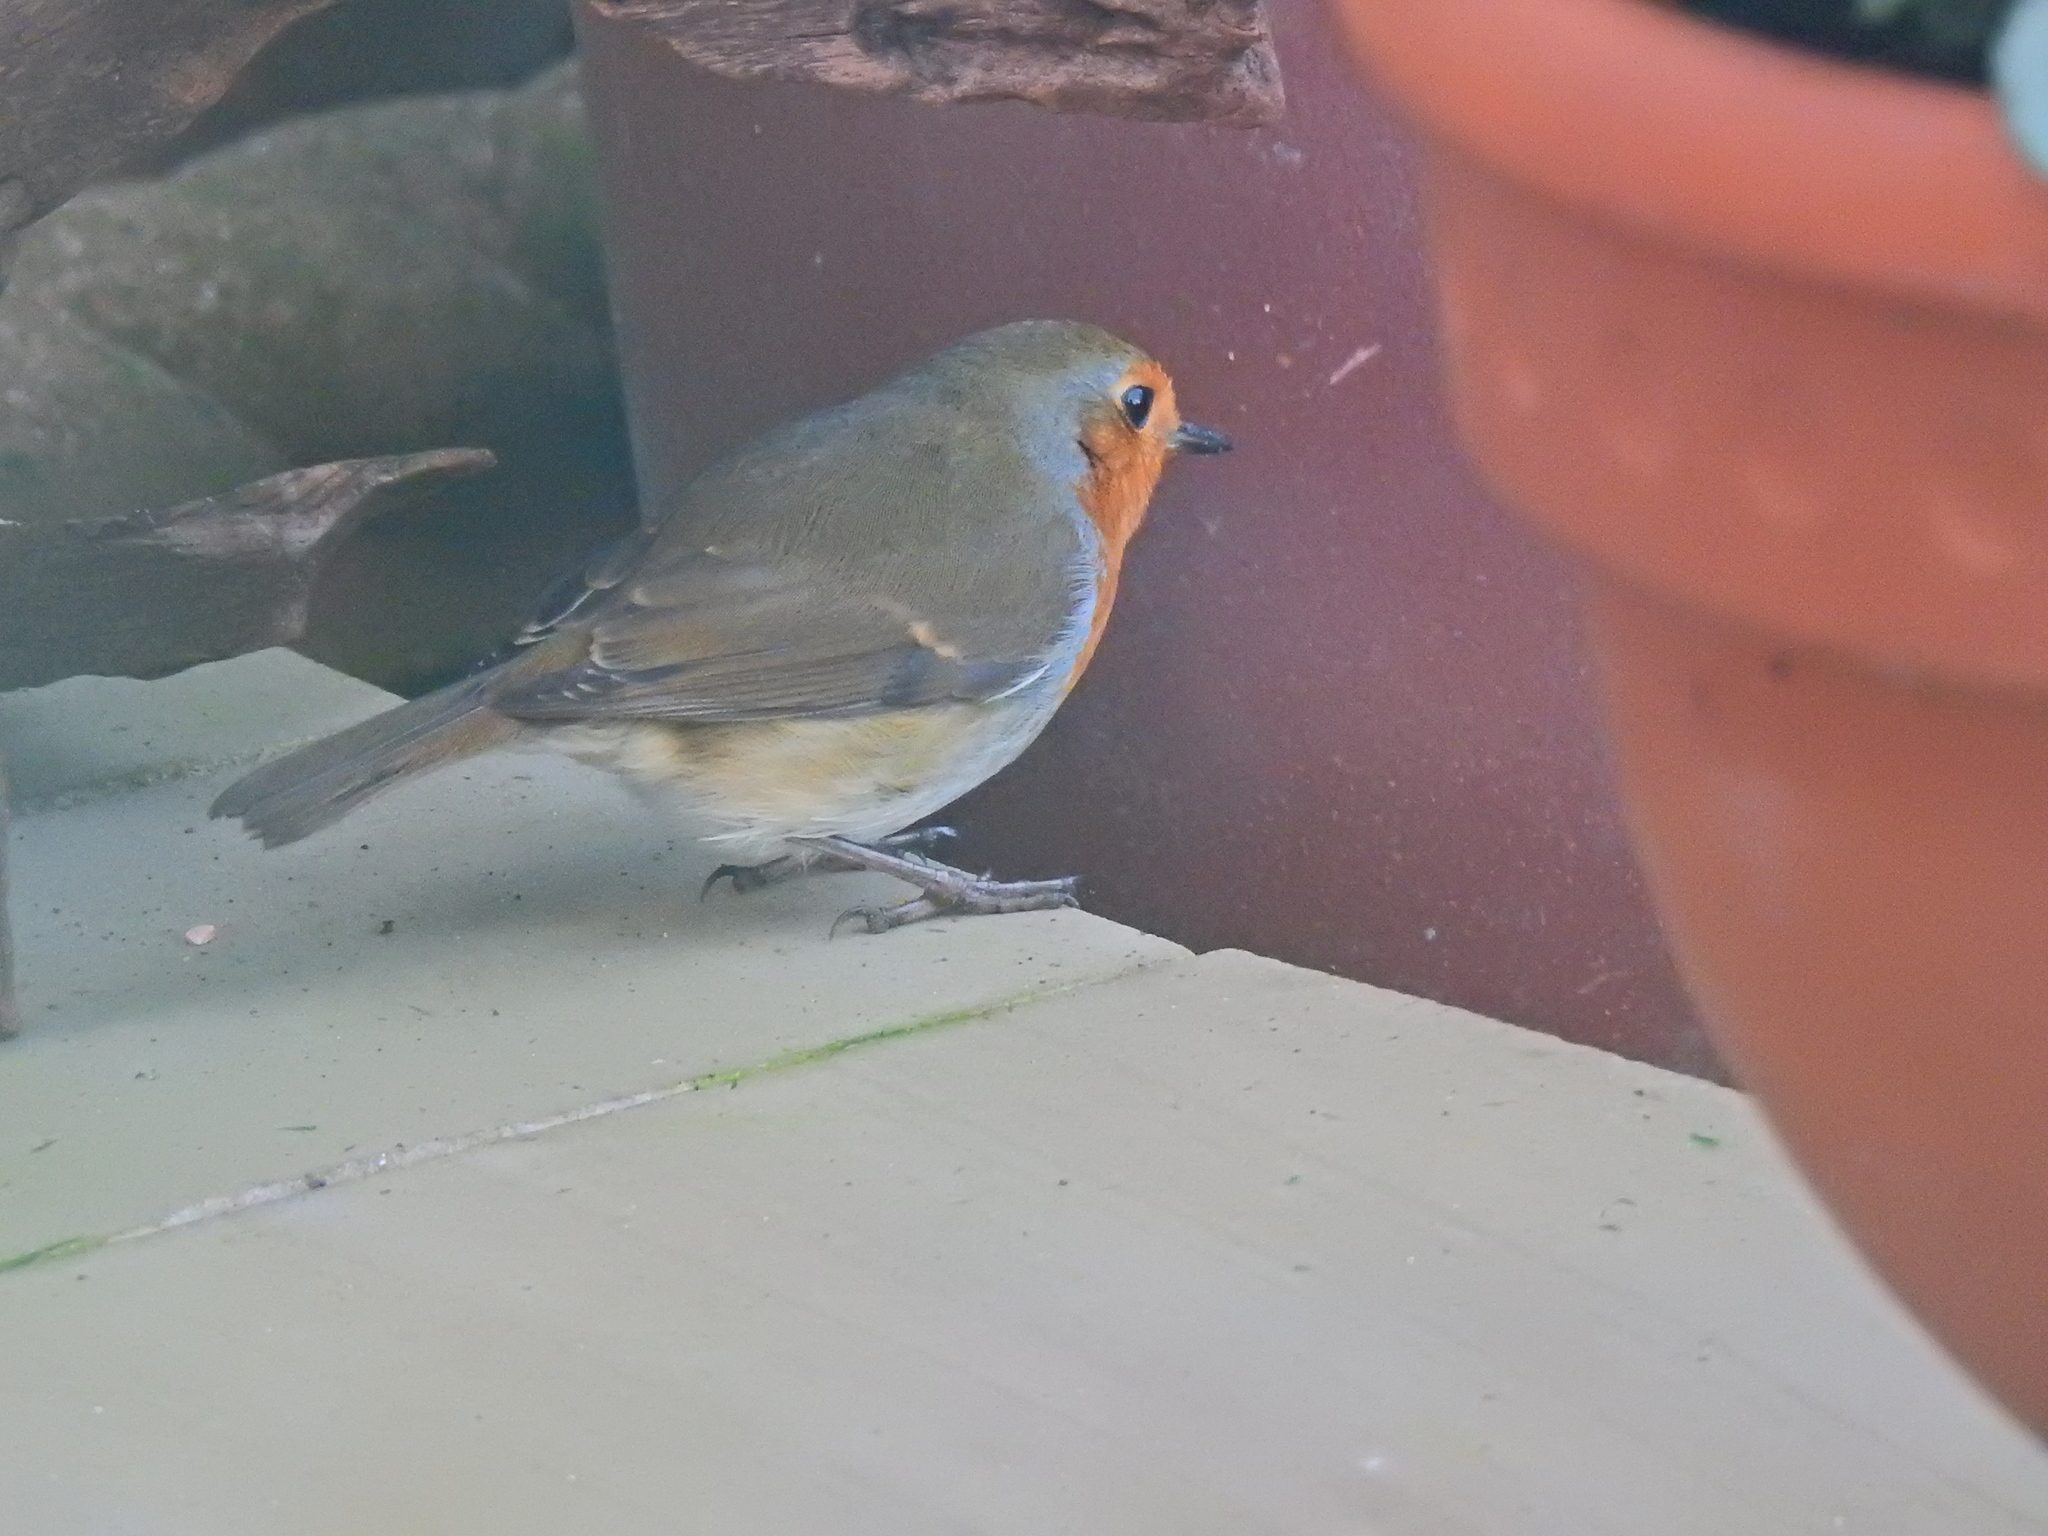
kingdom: Animalia
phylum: Chordata
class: Aves
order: Passeriformes
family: Muscicapidae
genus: Erithacus
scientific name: Erithacus rubecula
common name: European robin
